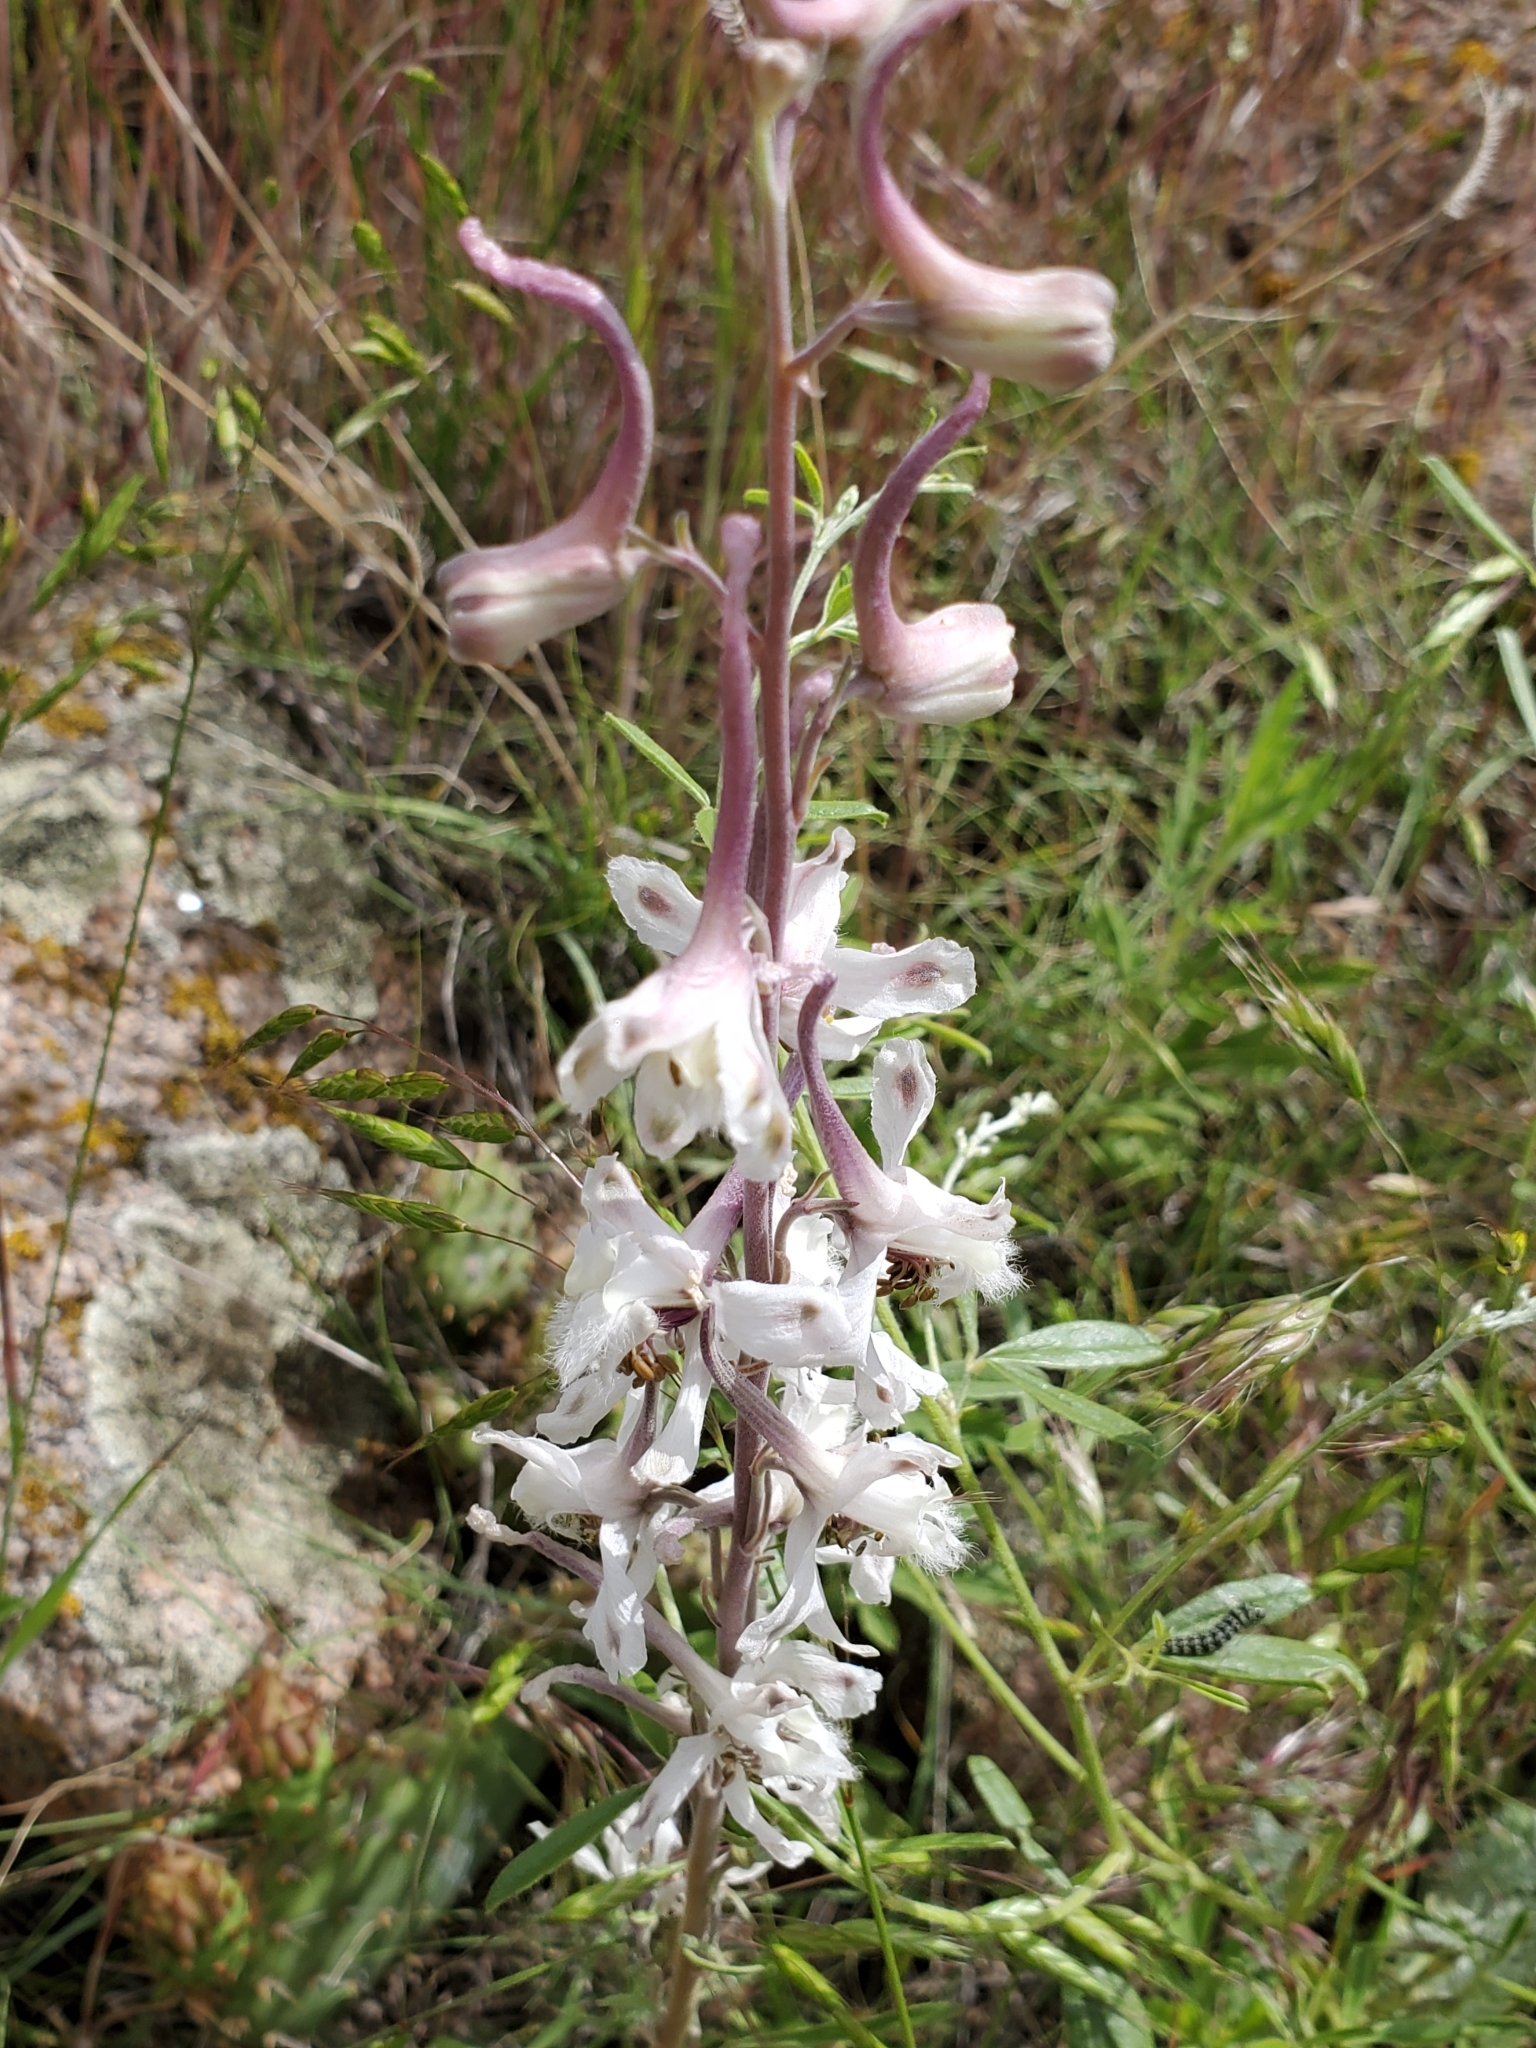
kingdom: Plantae
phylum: Tracheophyta
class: Magnoliopsida
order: Ranunculales
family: Ranunculaceae
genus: Delphinium
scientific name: Delphinium carolinianum
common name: Carolina larkspur
